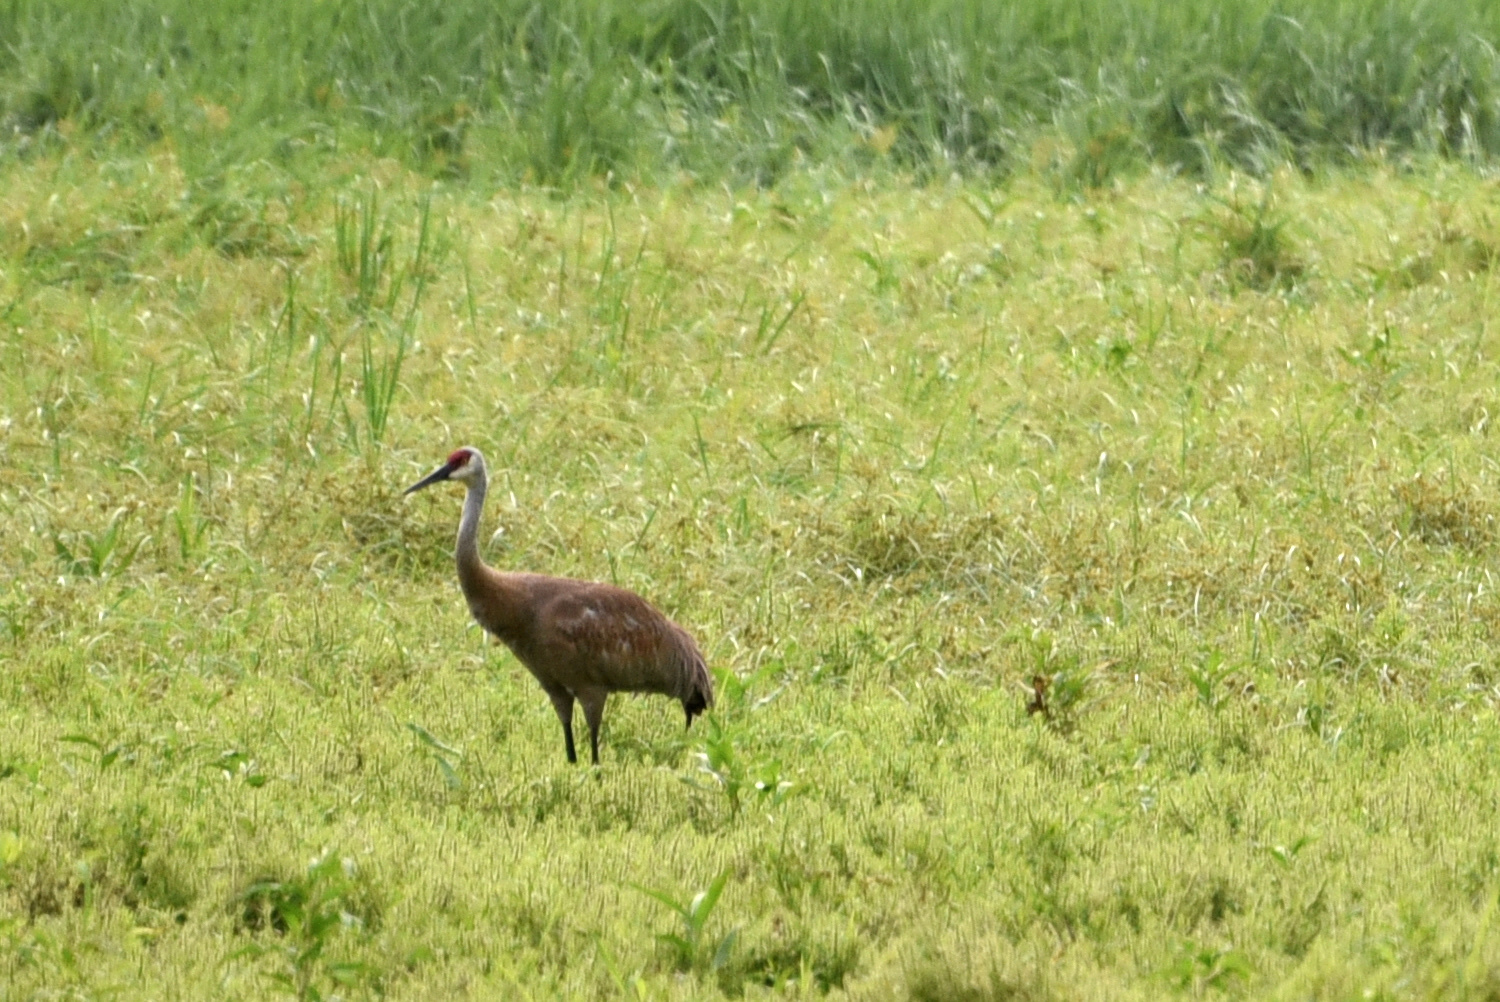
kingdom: Animalia
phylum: Chordata
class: Aves
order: Gruiformes
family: Gruidae
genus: Grus
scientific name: Grus canadensis
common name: Sandhill crane
